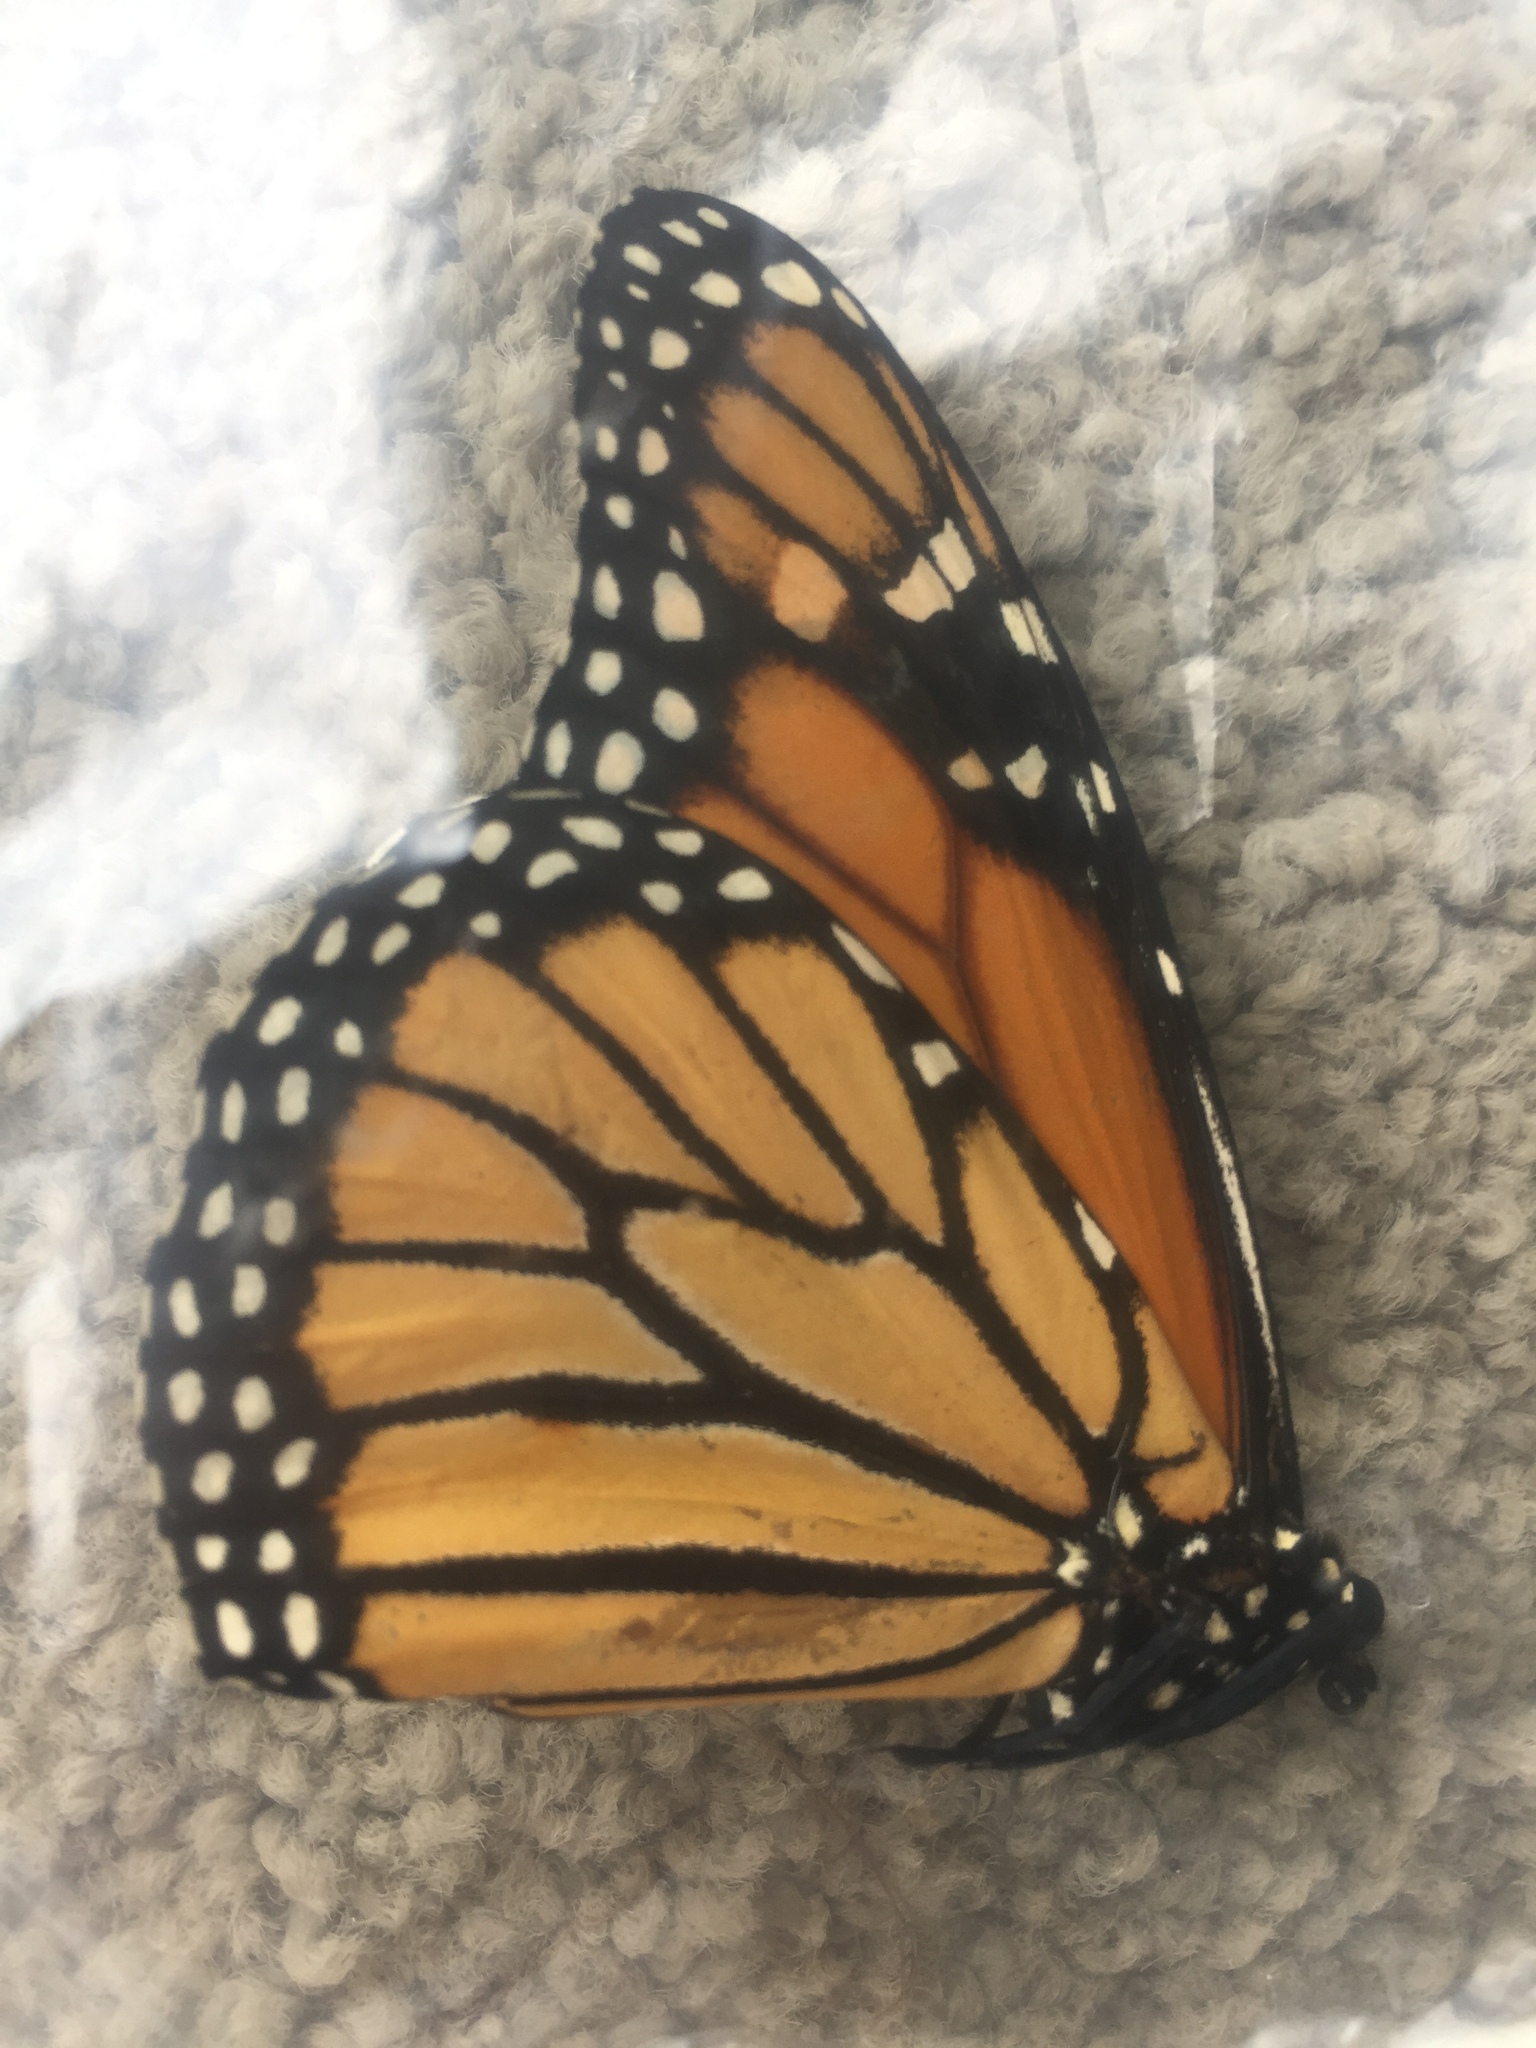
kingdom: Animalia
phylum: Arthropoda
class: Insecta
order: Lepidoptera
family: Nymphalidae
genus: Danaus
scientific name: Danaus plexippus
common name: Monarch
